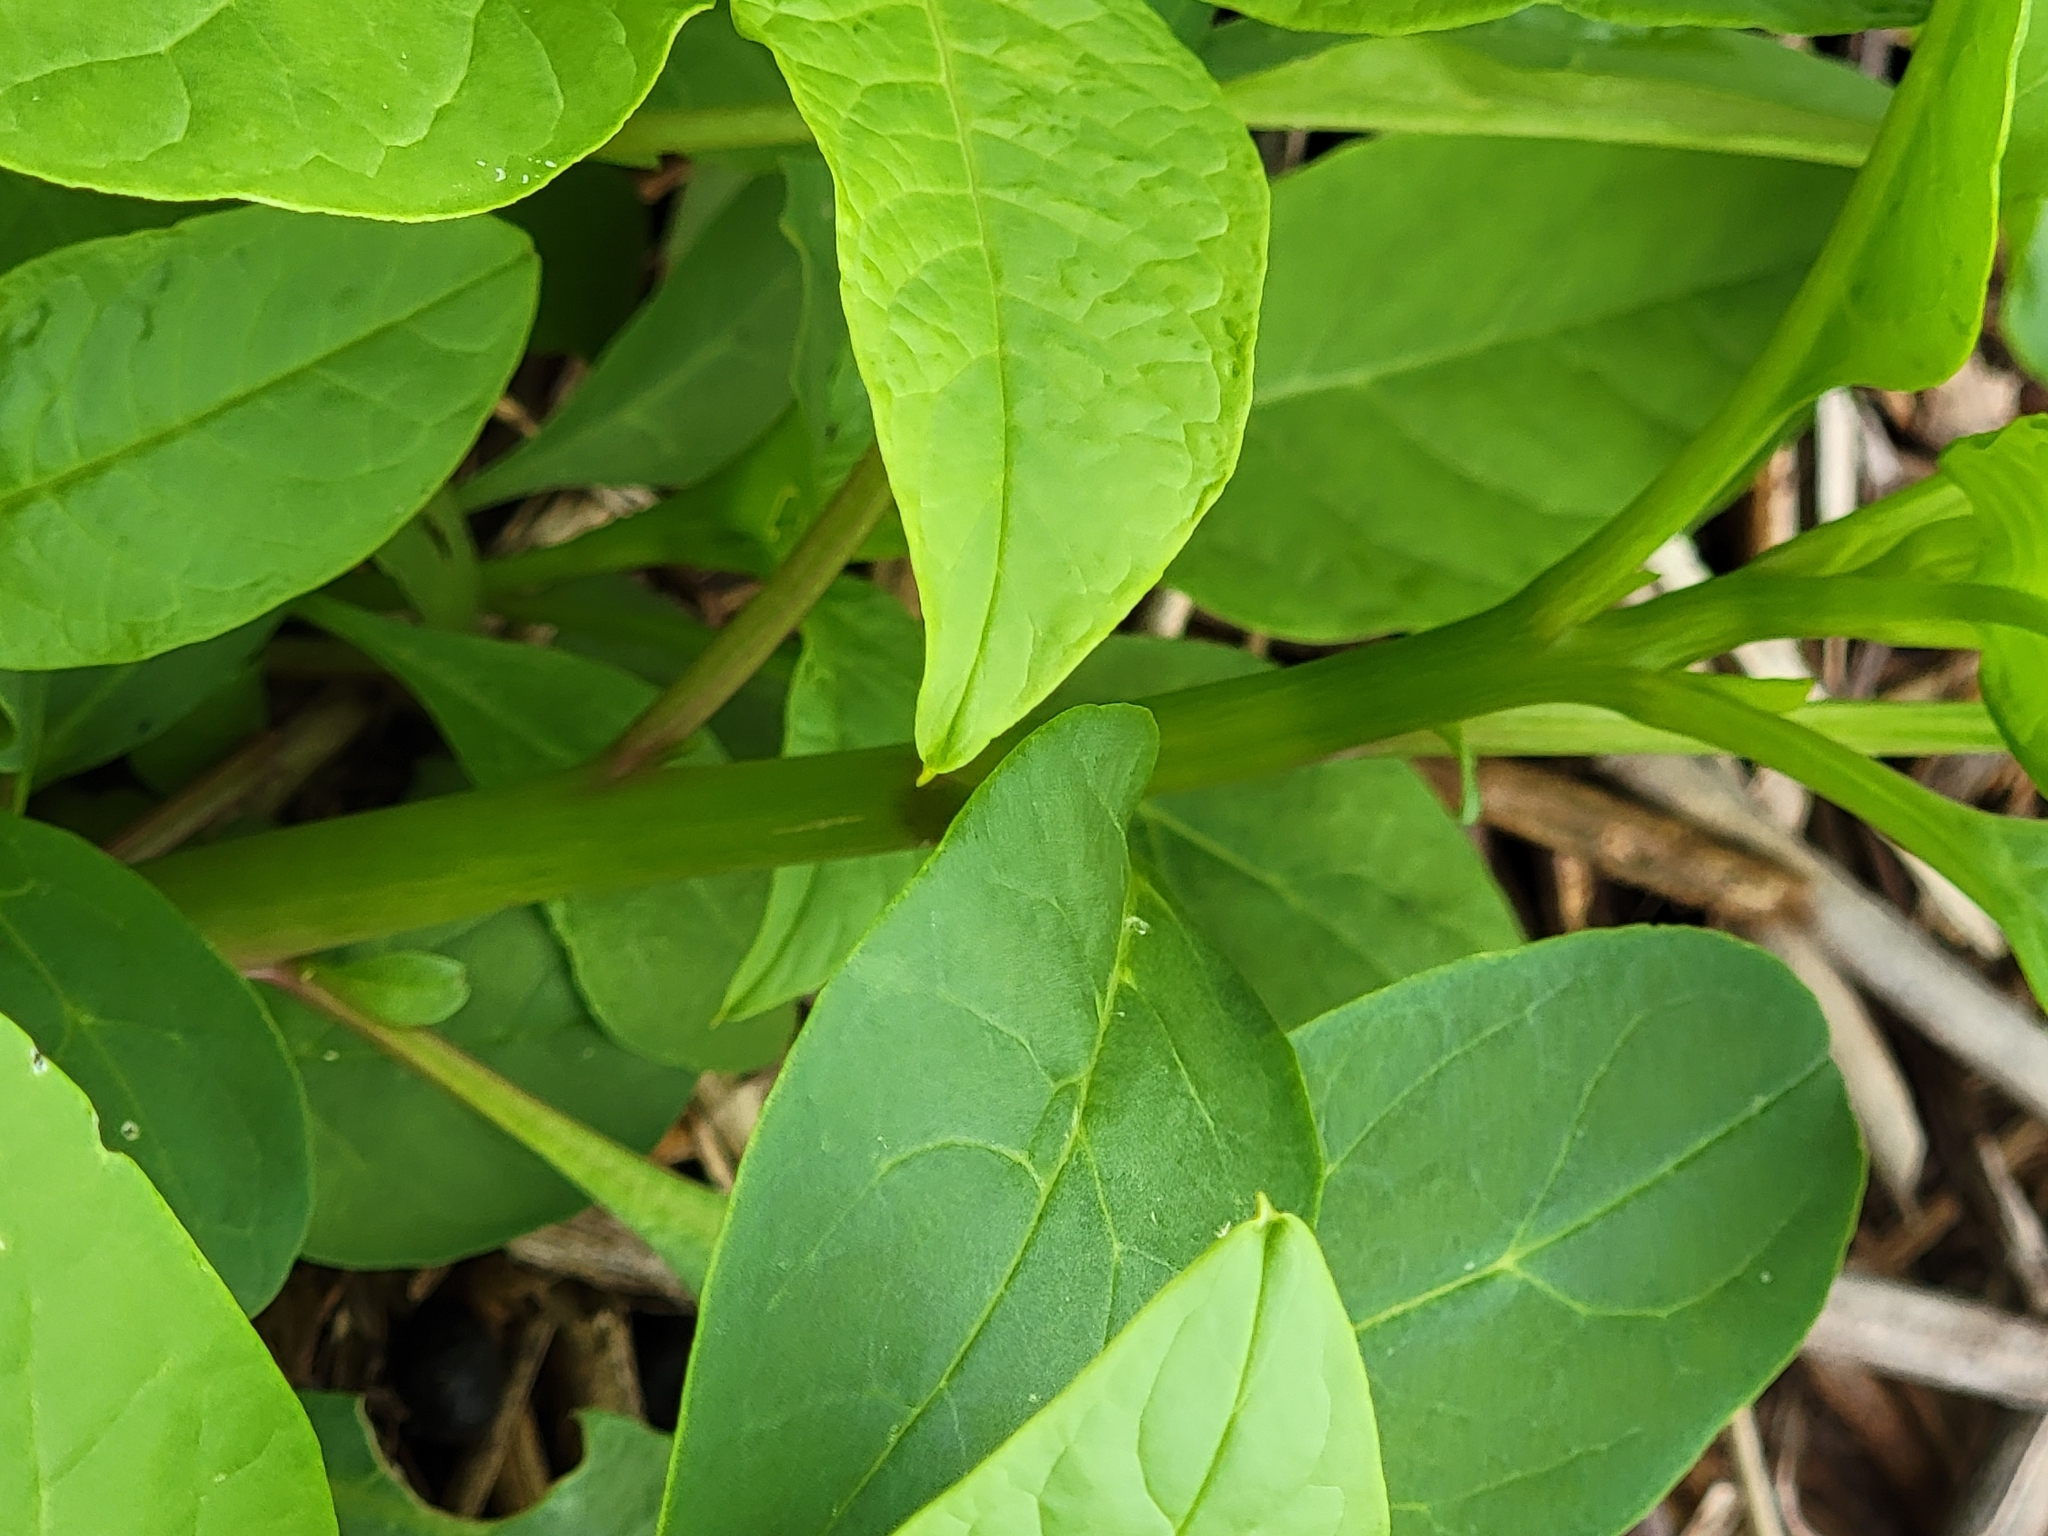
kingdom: Plantae
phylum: Tracheophyta
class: Magnoliopsida
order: Caryophyllales
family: Phytolaccaceae
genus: Phytolacca
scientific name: Phytolacca americana
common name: American pokeweed
